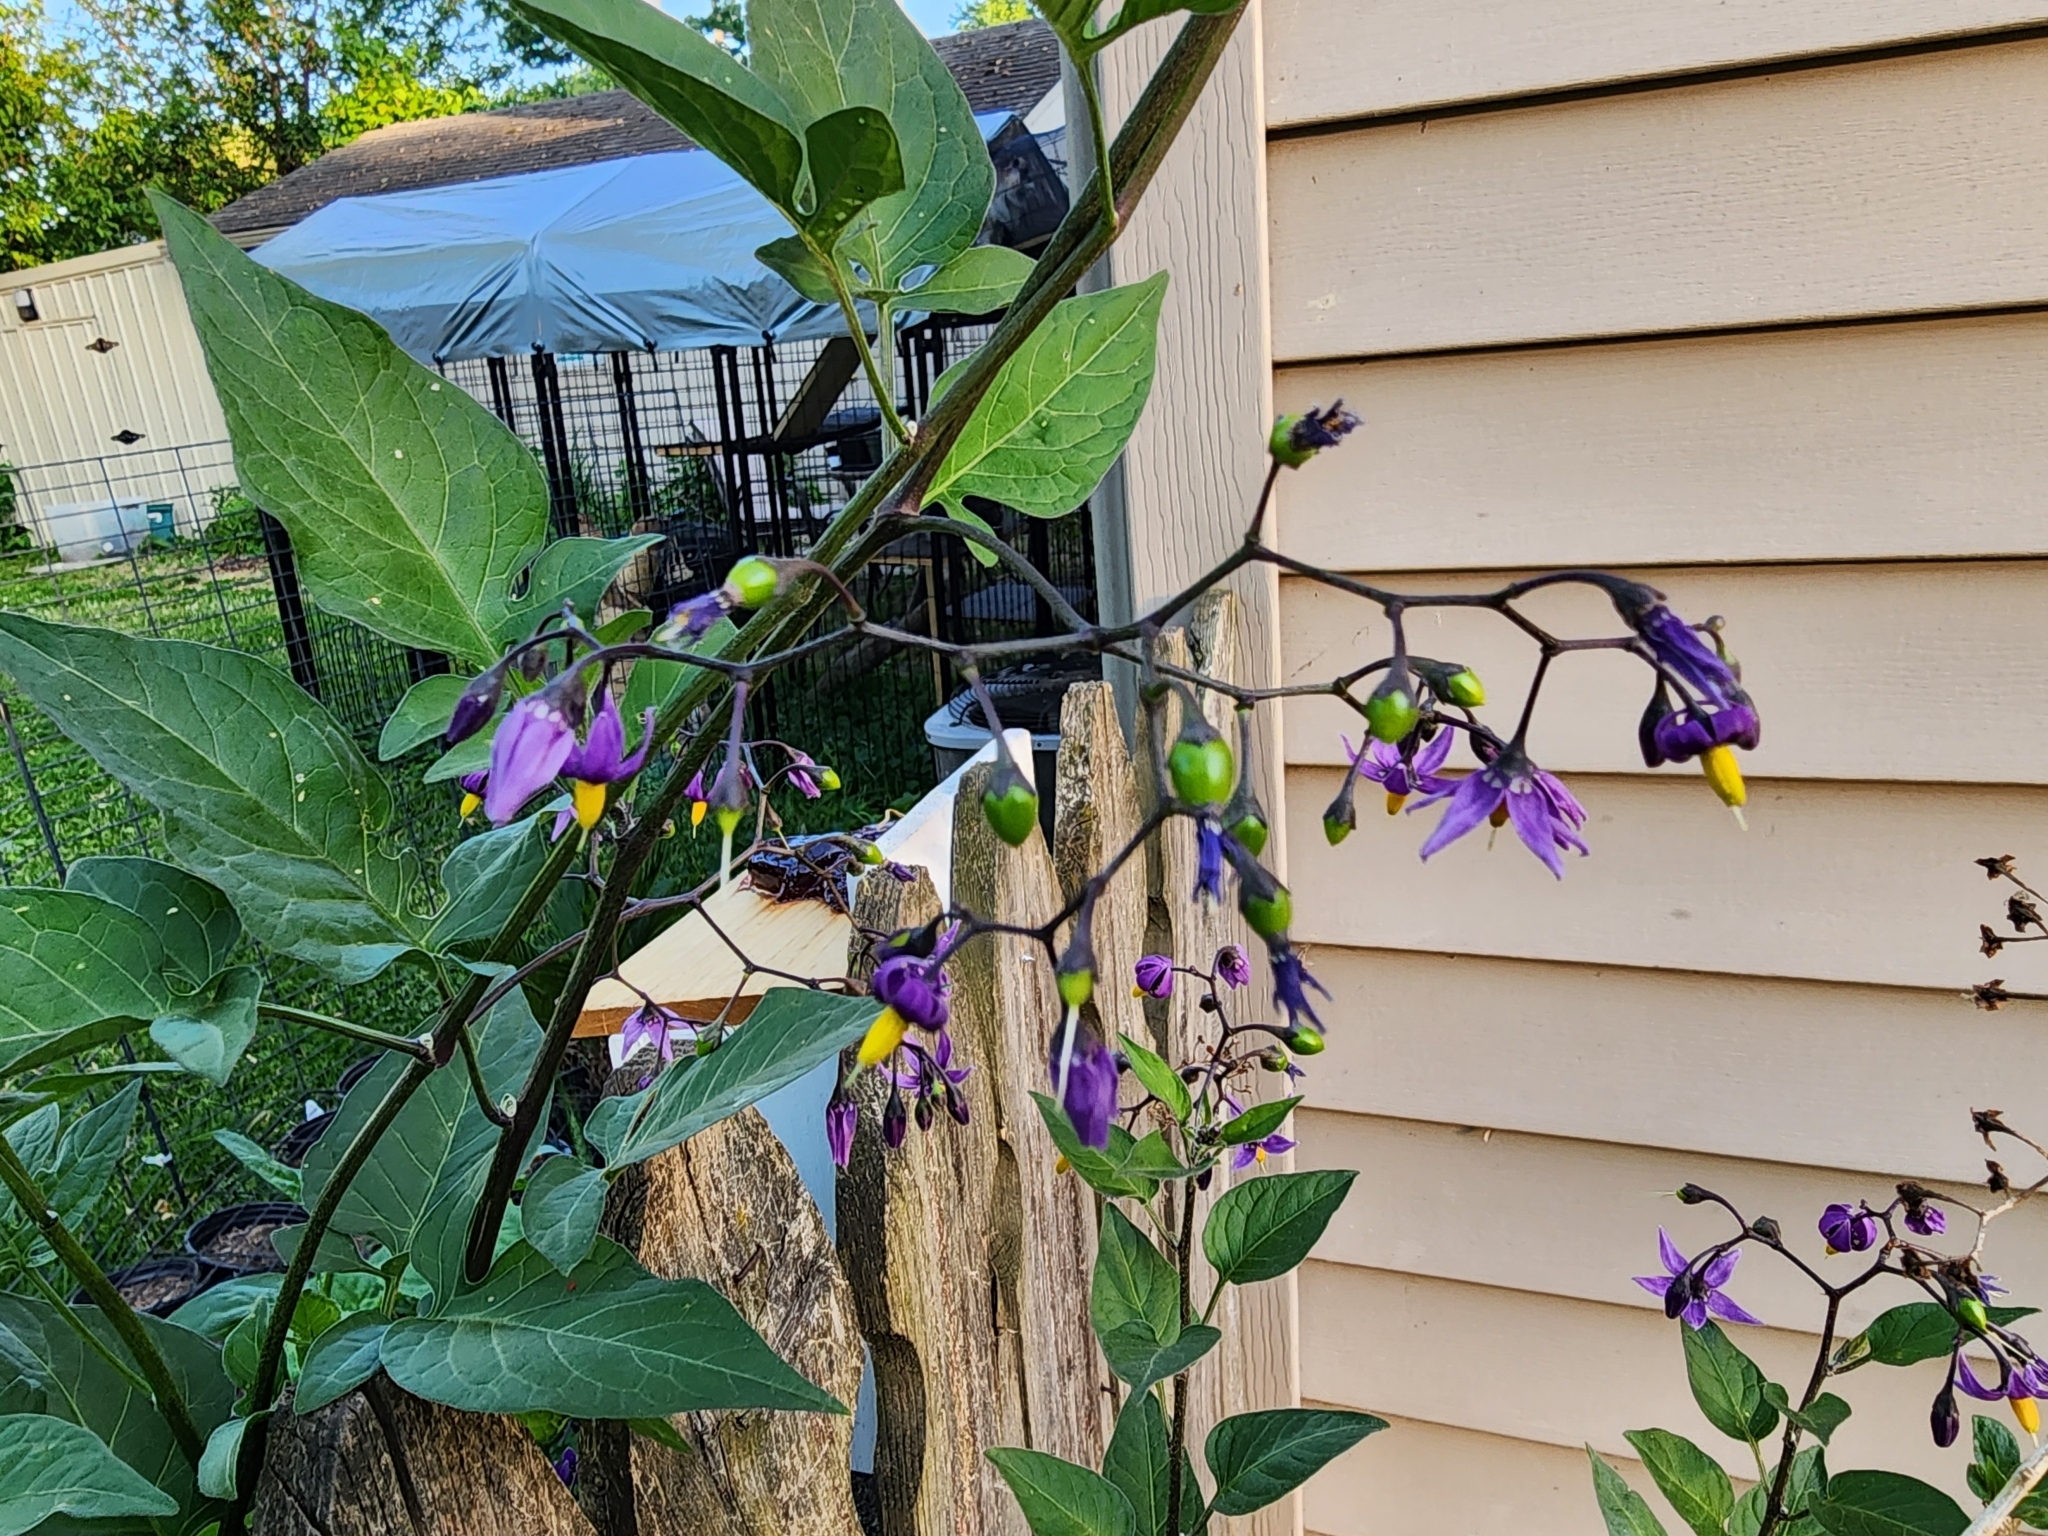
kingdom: Plantae
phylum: Tracheophyta
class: Magnoliopsida
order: Solanales
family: Solanaceae
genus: Solanum
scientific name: Solanum dulcamara
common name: Climbing nightshade
